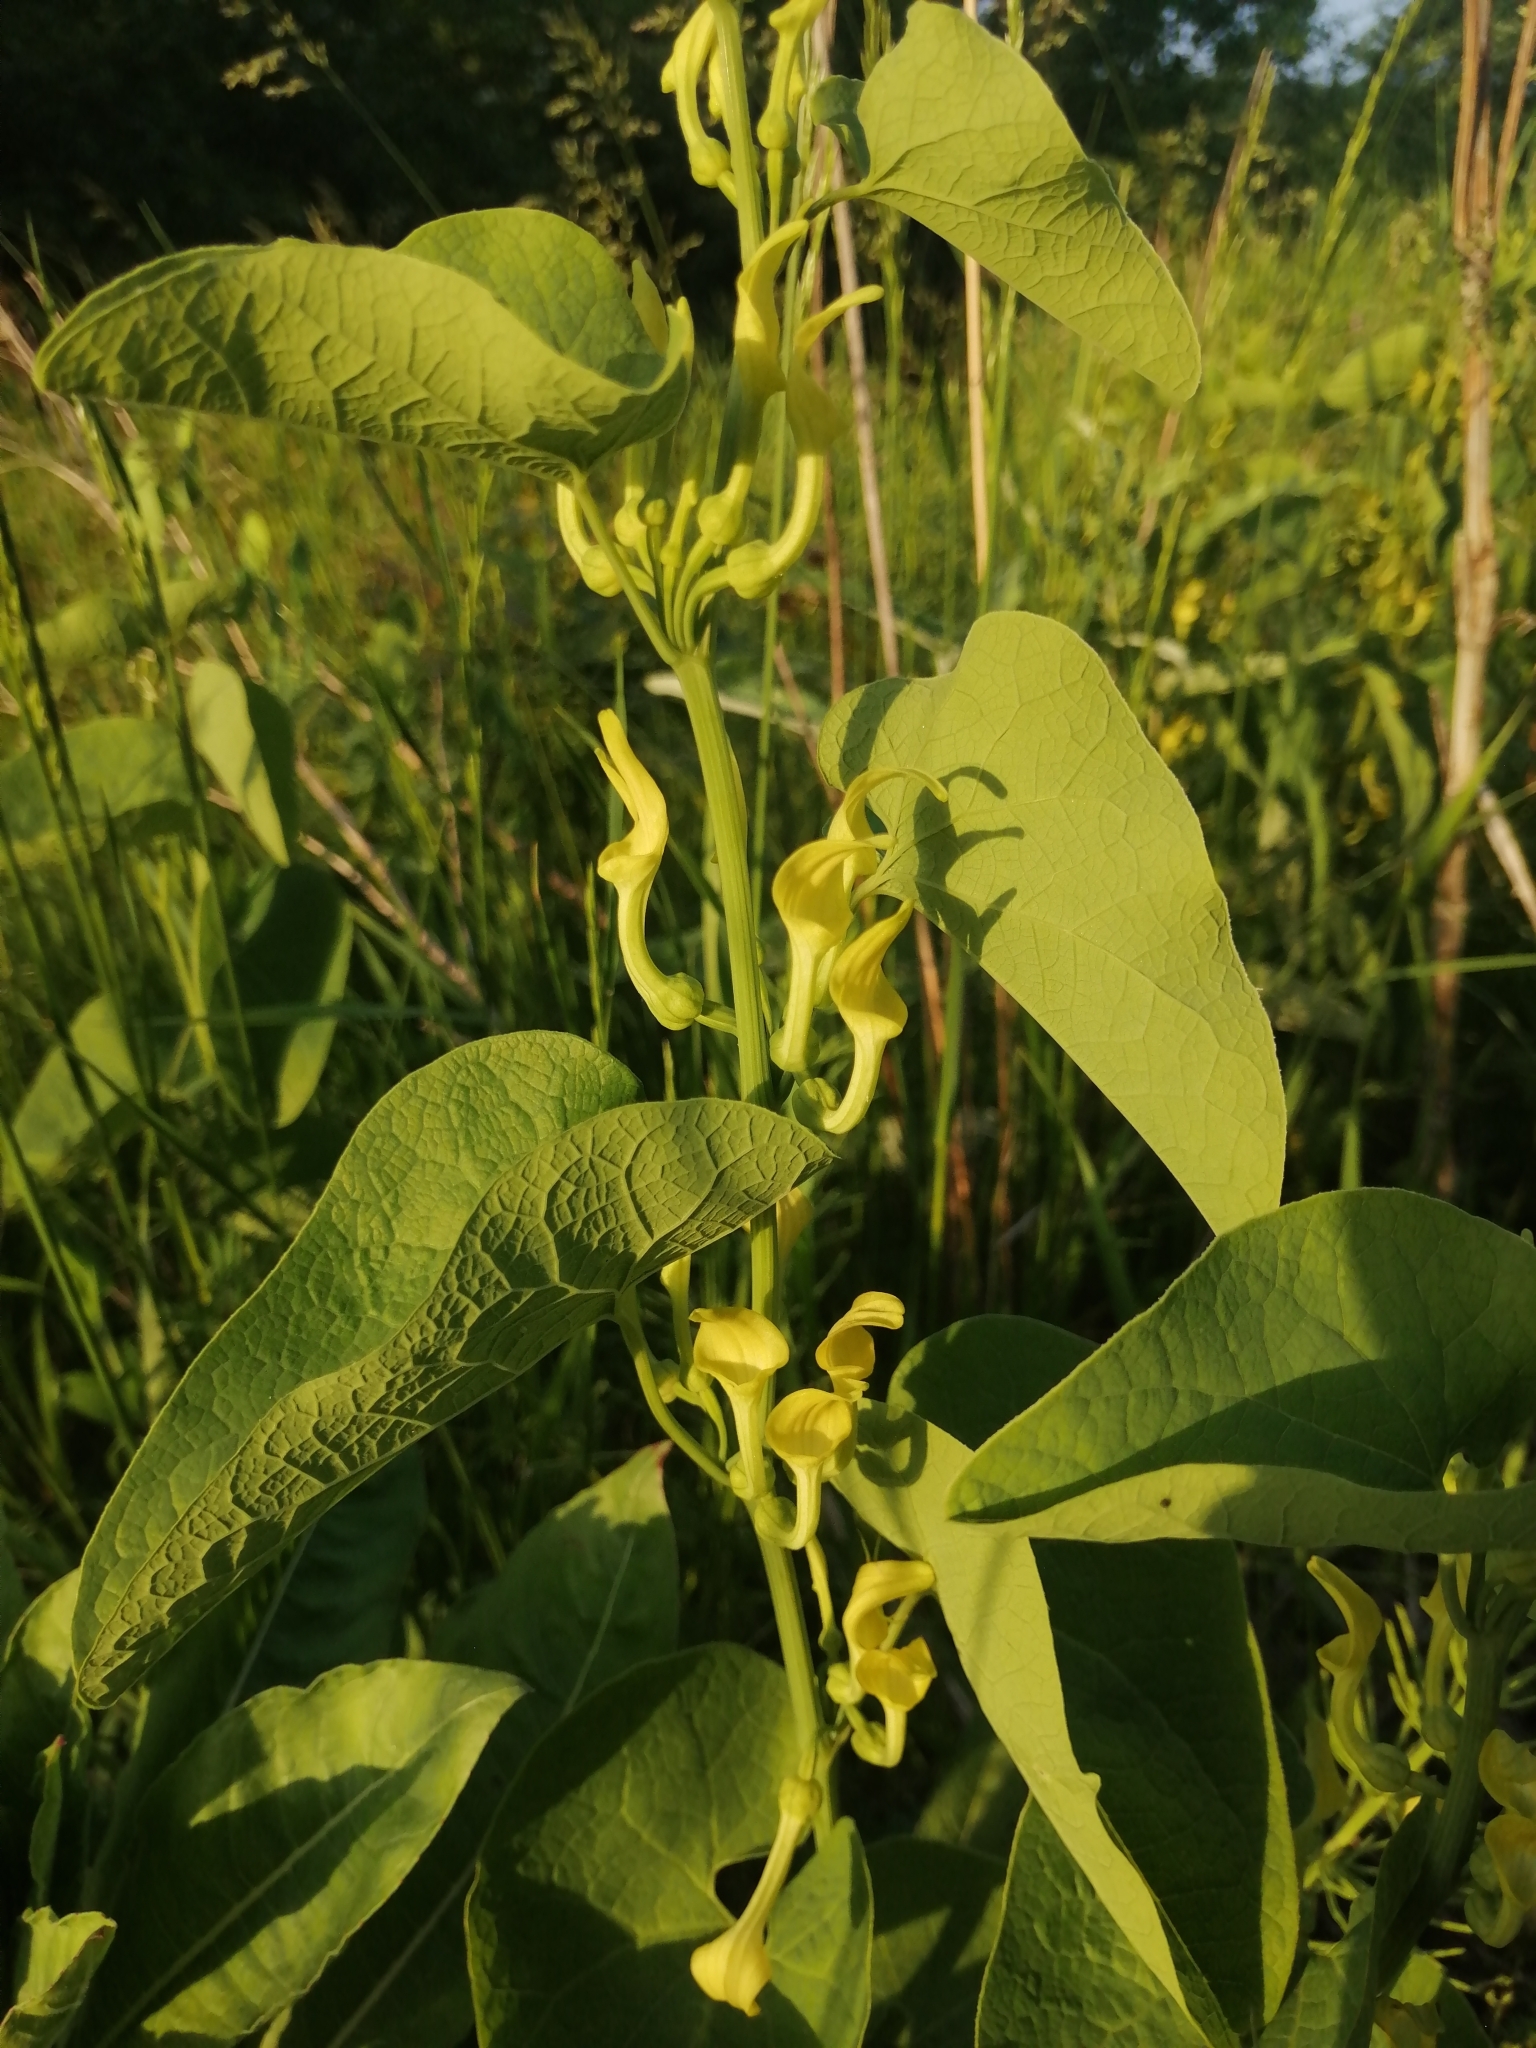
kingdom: Plantae
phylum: Tracheophyta
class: Magnoliopsida
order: Piperales
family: Aristolochiaceae
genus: Aristolochia
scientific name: Aristolochia clematitis
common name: Birthwort
